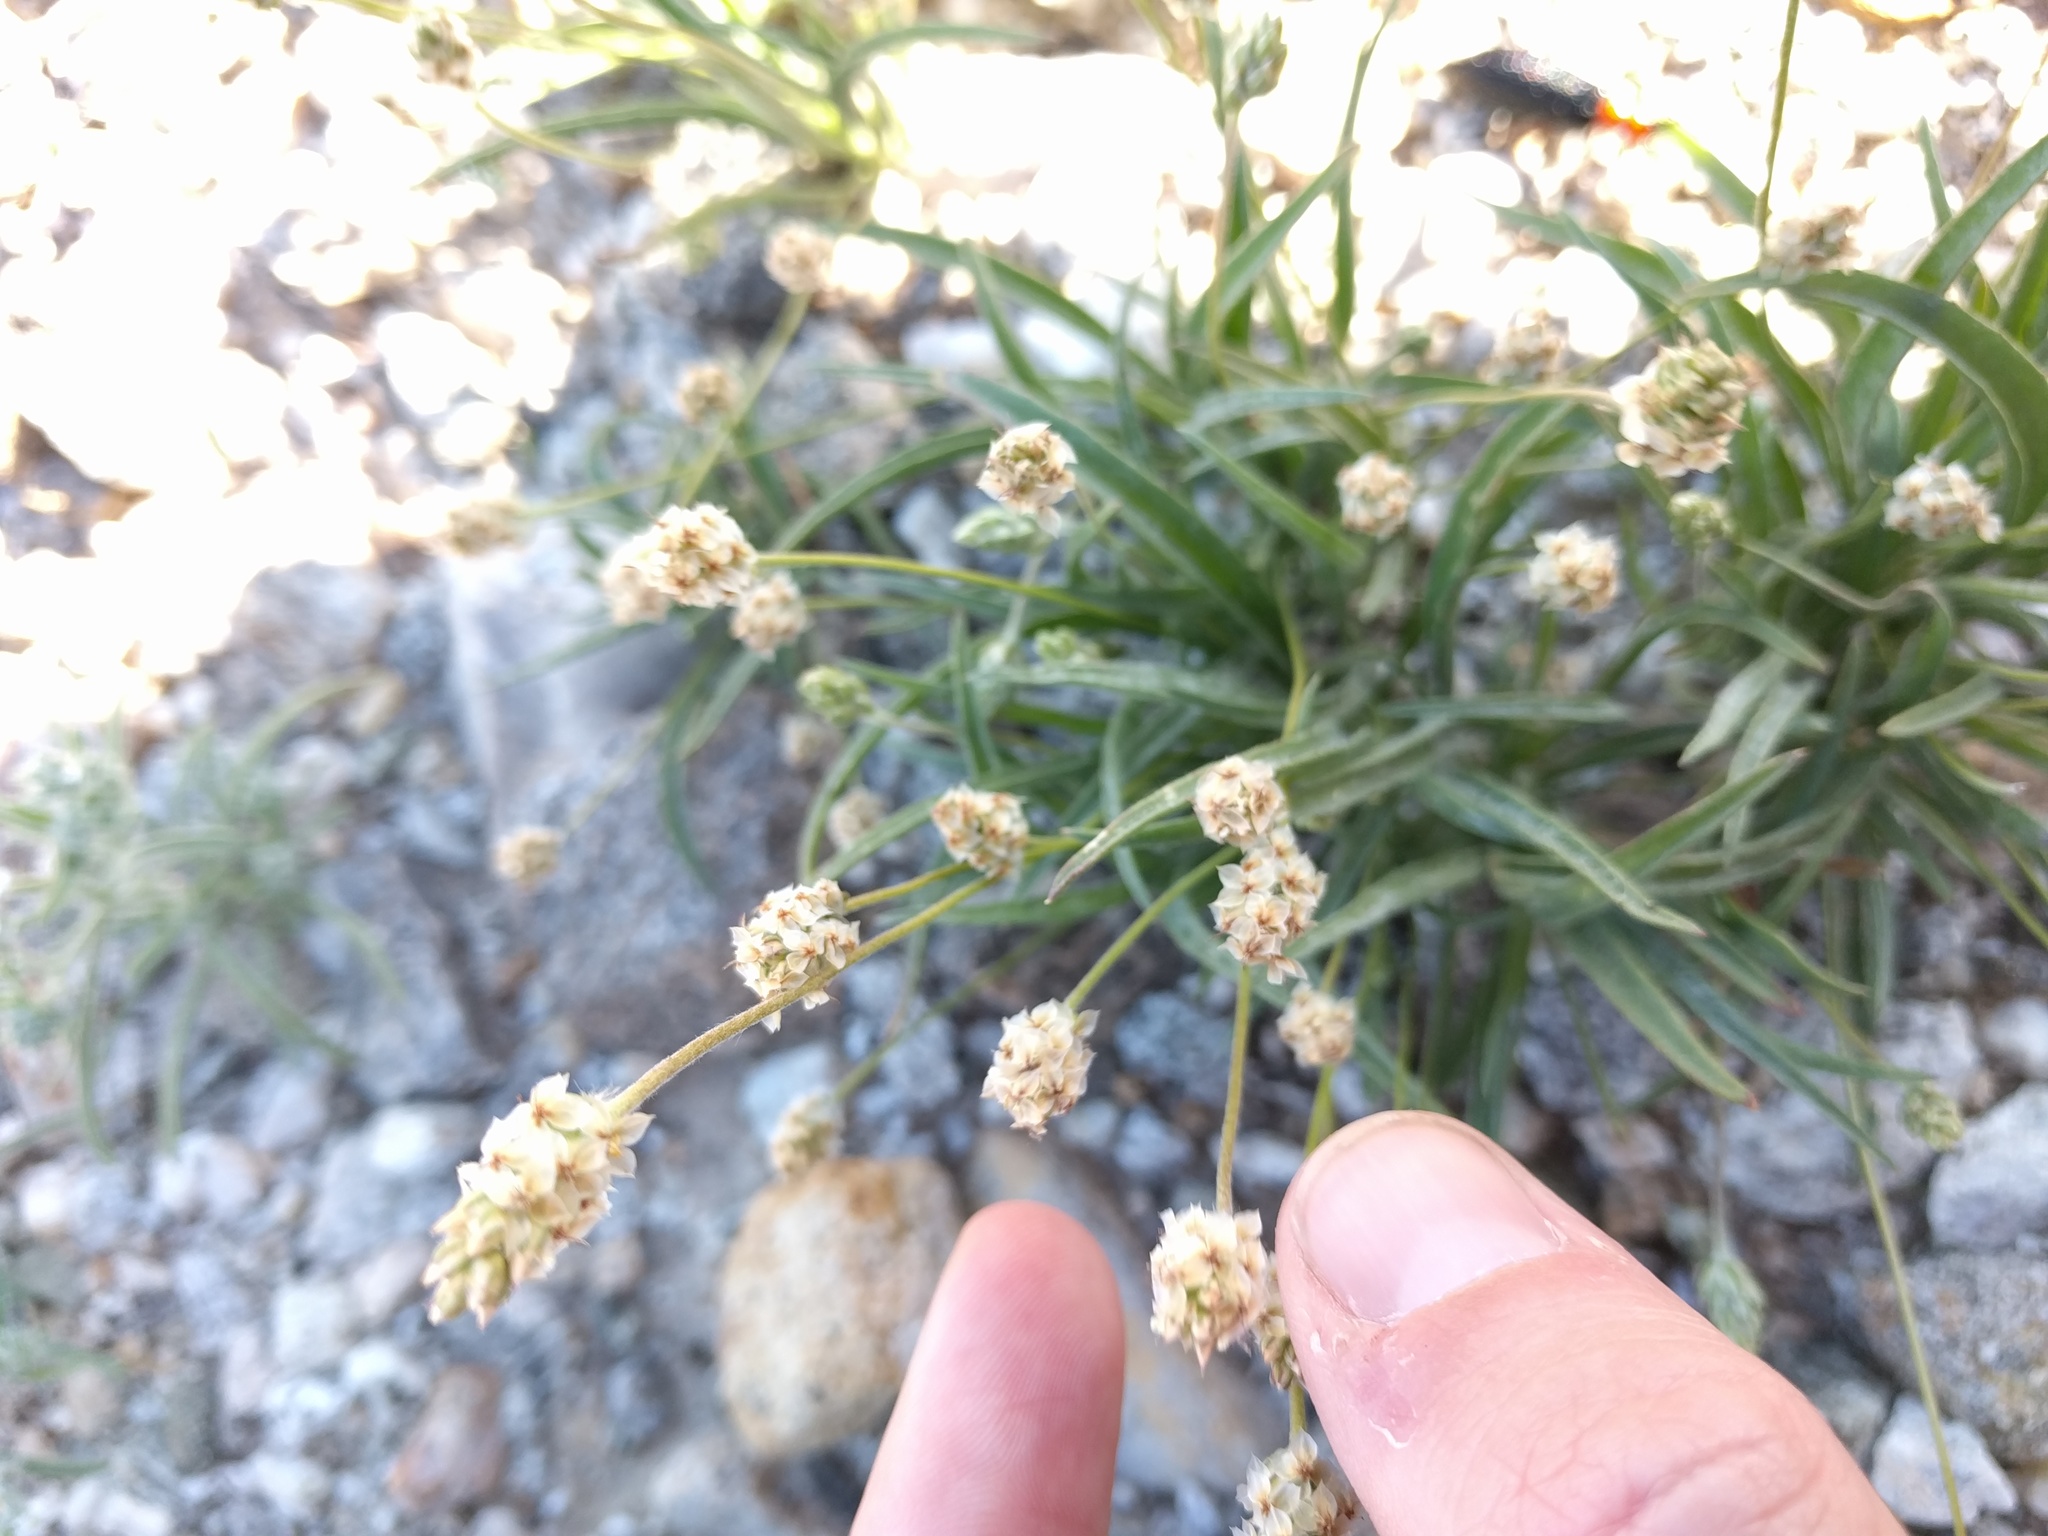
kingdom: Plantae
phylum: Tracheophyta
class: Magnoliopsida
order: Lamiales
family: Plantaginaceae
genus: Plantago
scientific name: Plantago ovata
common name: Blond plantain
